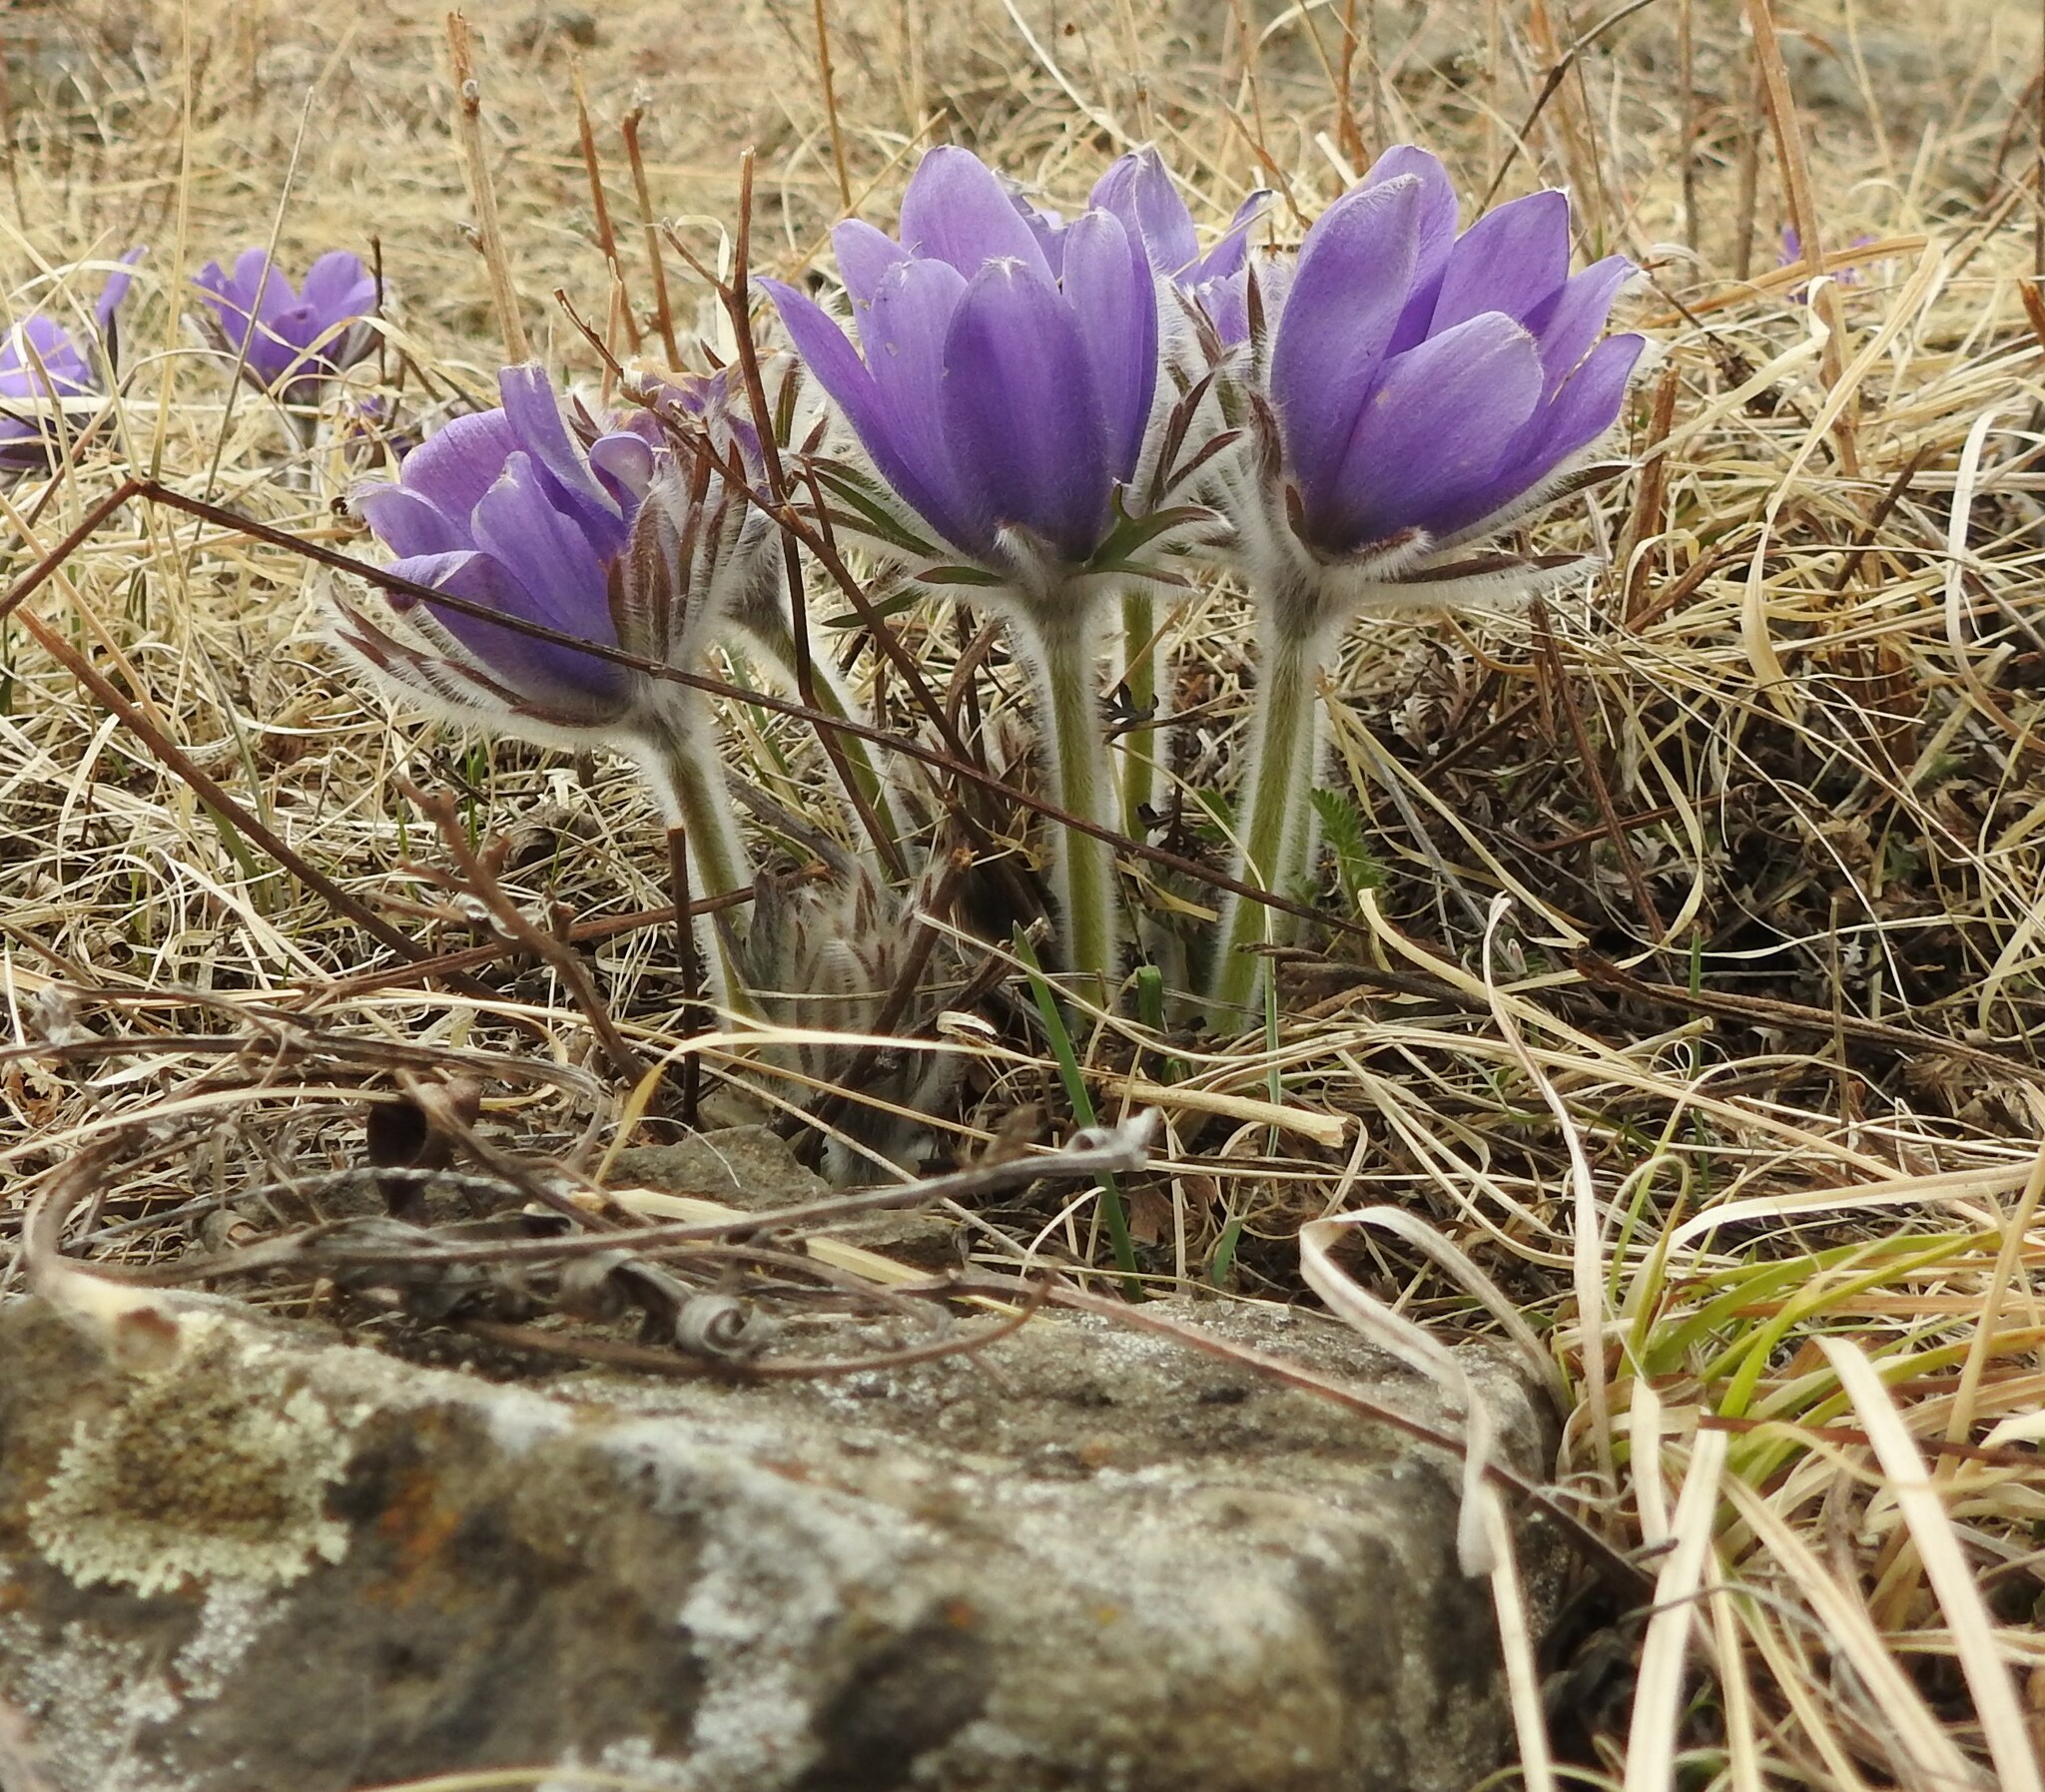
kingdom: Plantae
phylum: Tracheophyta
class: Magnoliopsida
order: Ranunculales
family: Ranunculaceae
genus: Pulsatilla
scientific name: Pulsatilla turczaninovii
